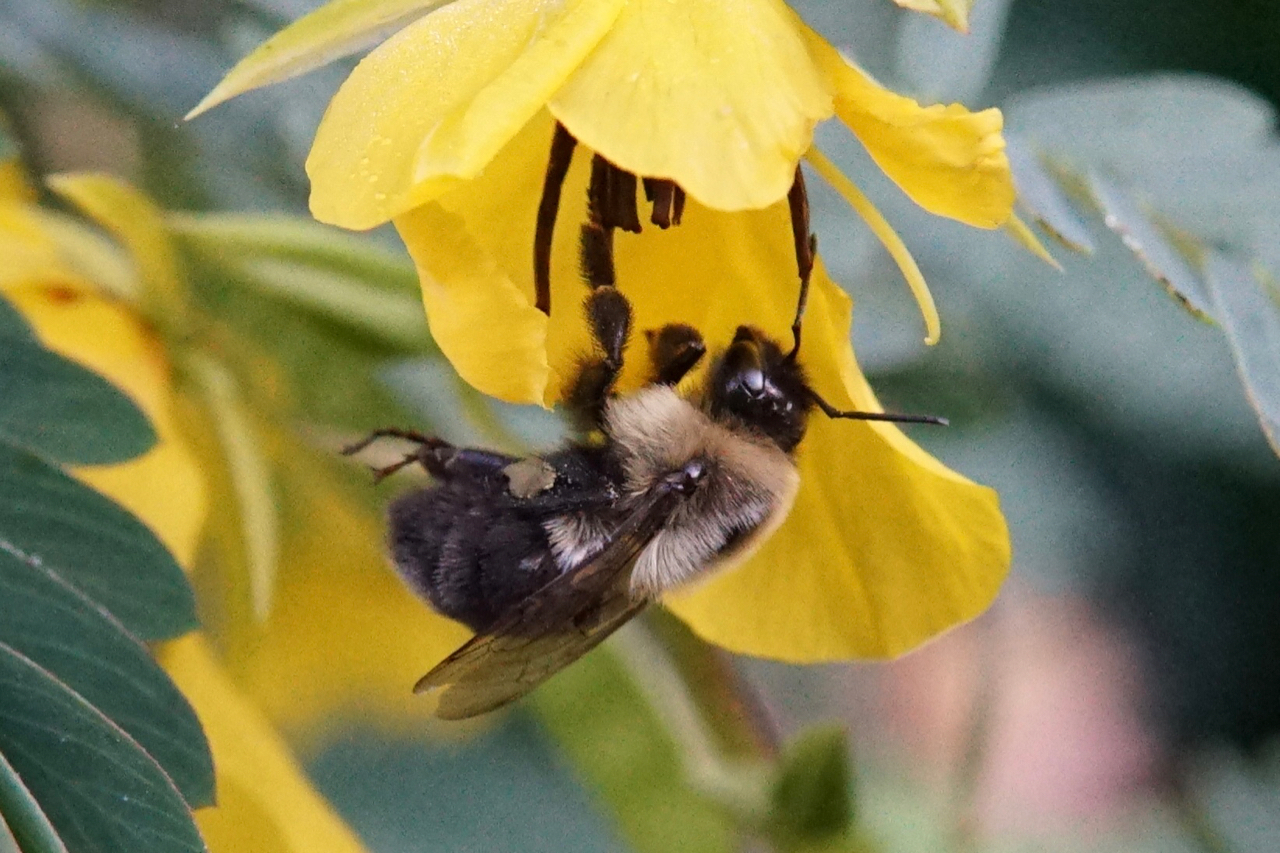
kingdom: Animalia
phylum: Arthropoda
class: Insecta
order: Hymenoptera
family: Apidae
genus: Bombus
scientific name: Bombus impatiens
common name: Common eastern bumble bee
